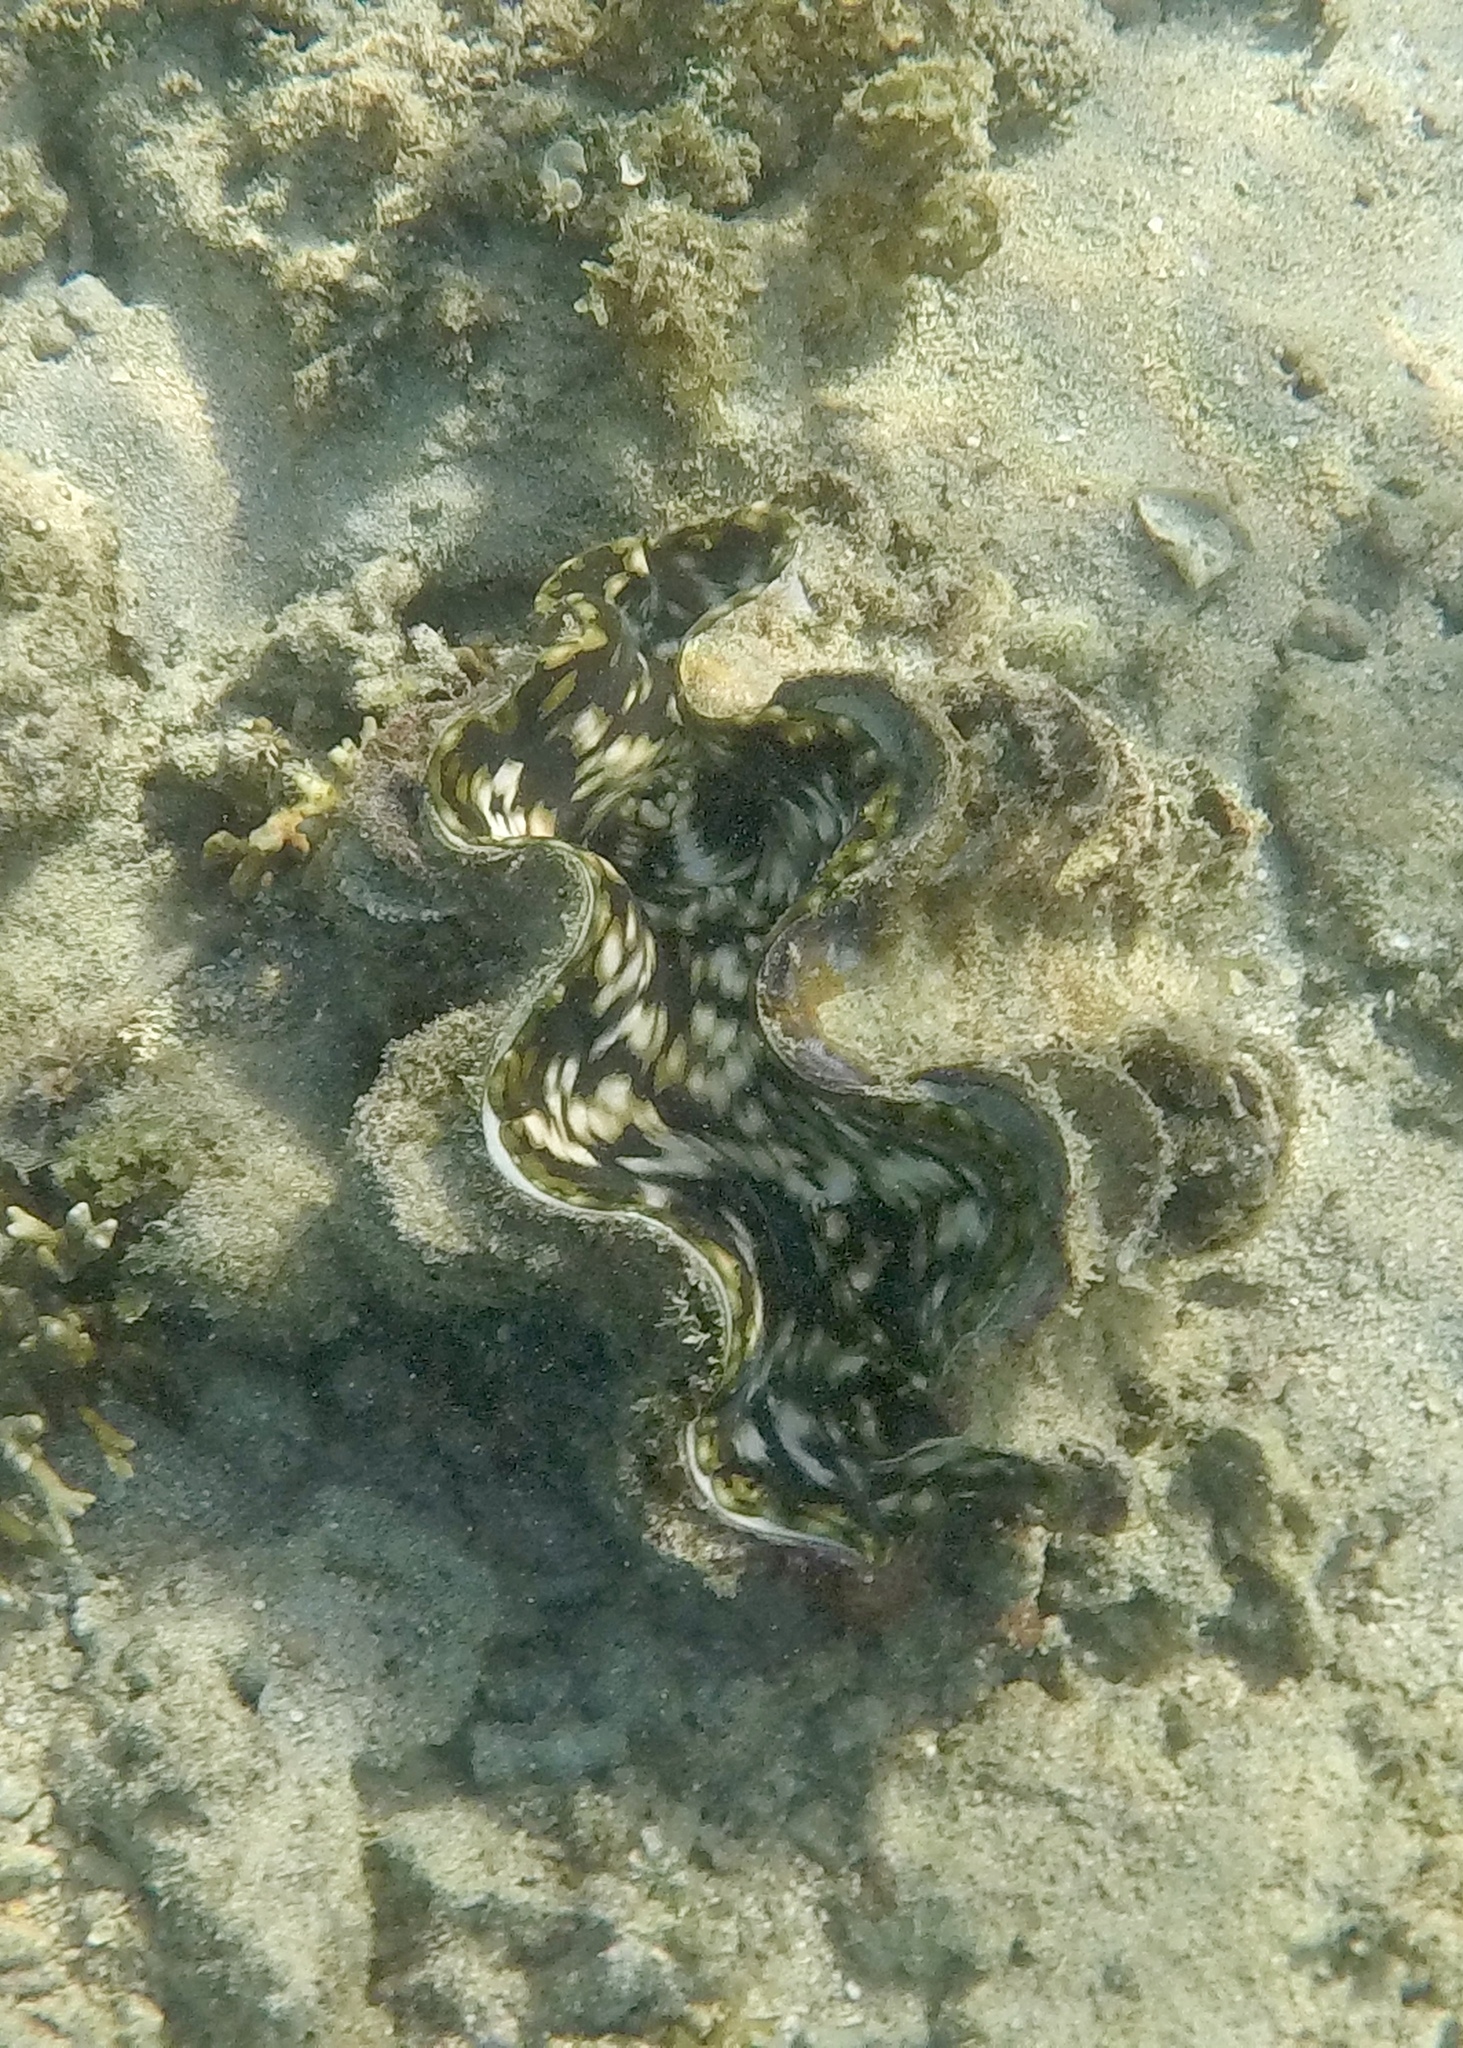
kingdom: Animalia
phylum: Mollusca
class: Bivalvia
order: Cardiida
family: Cardiidae
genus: Tridacna
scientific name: Tridacna squamosa
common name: Fluted clam
